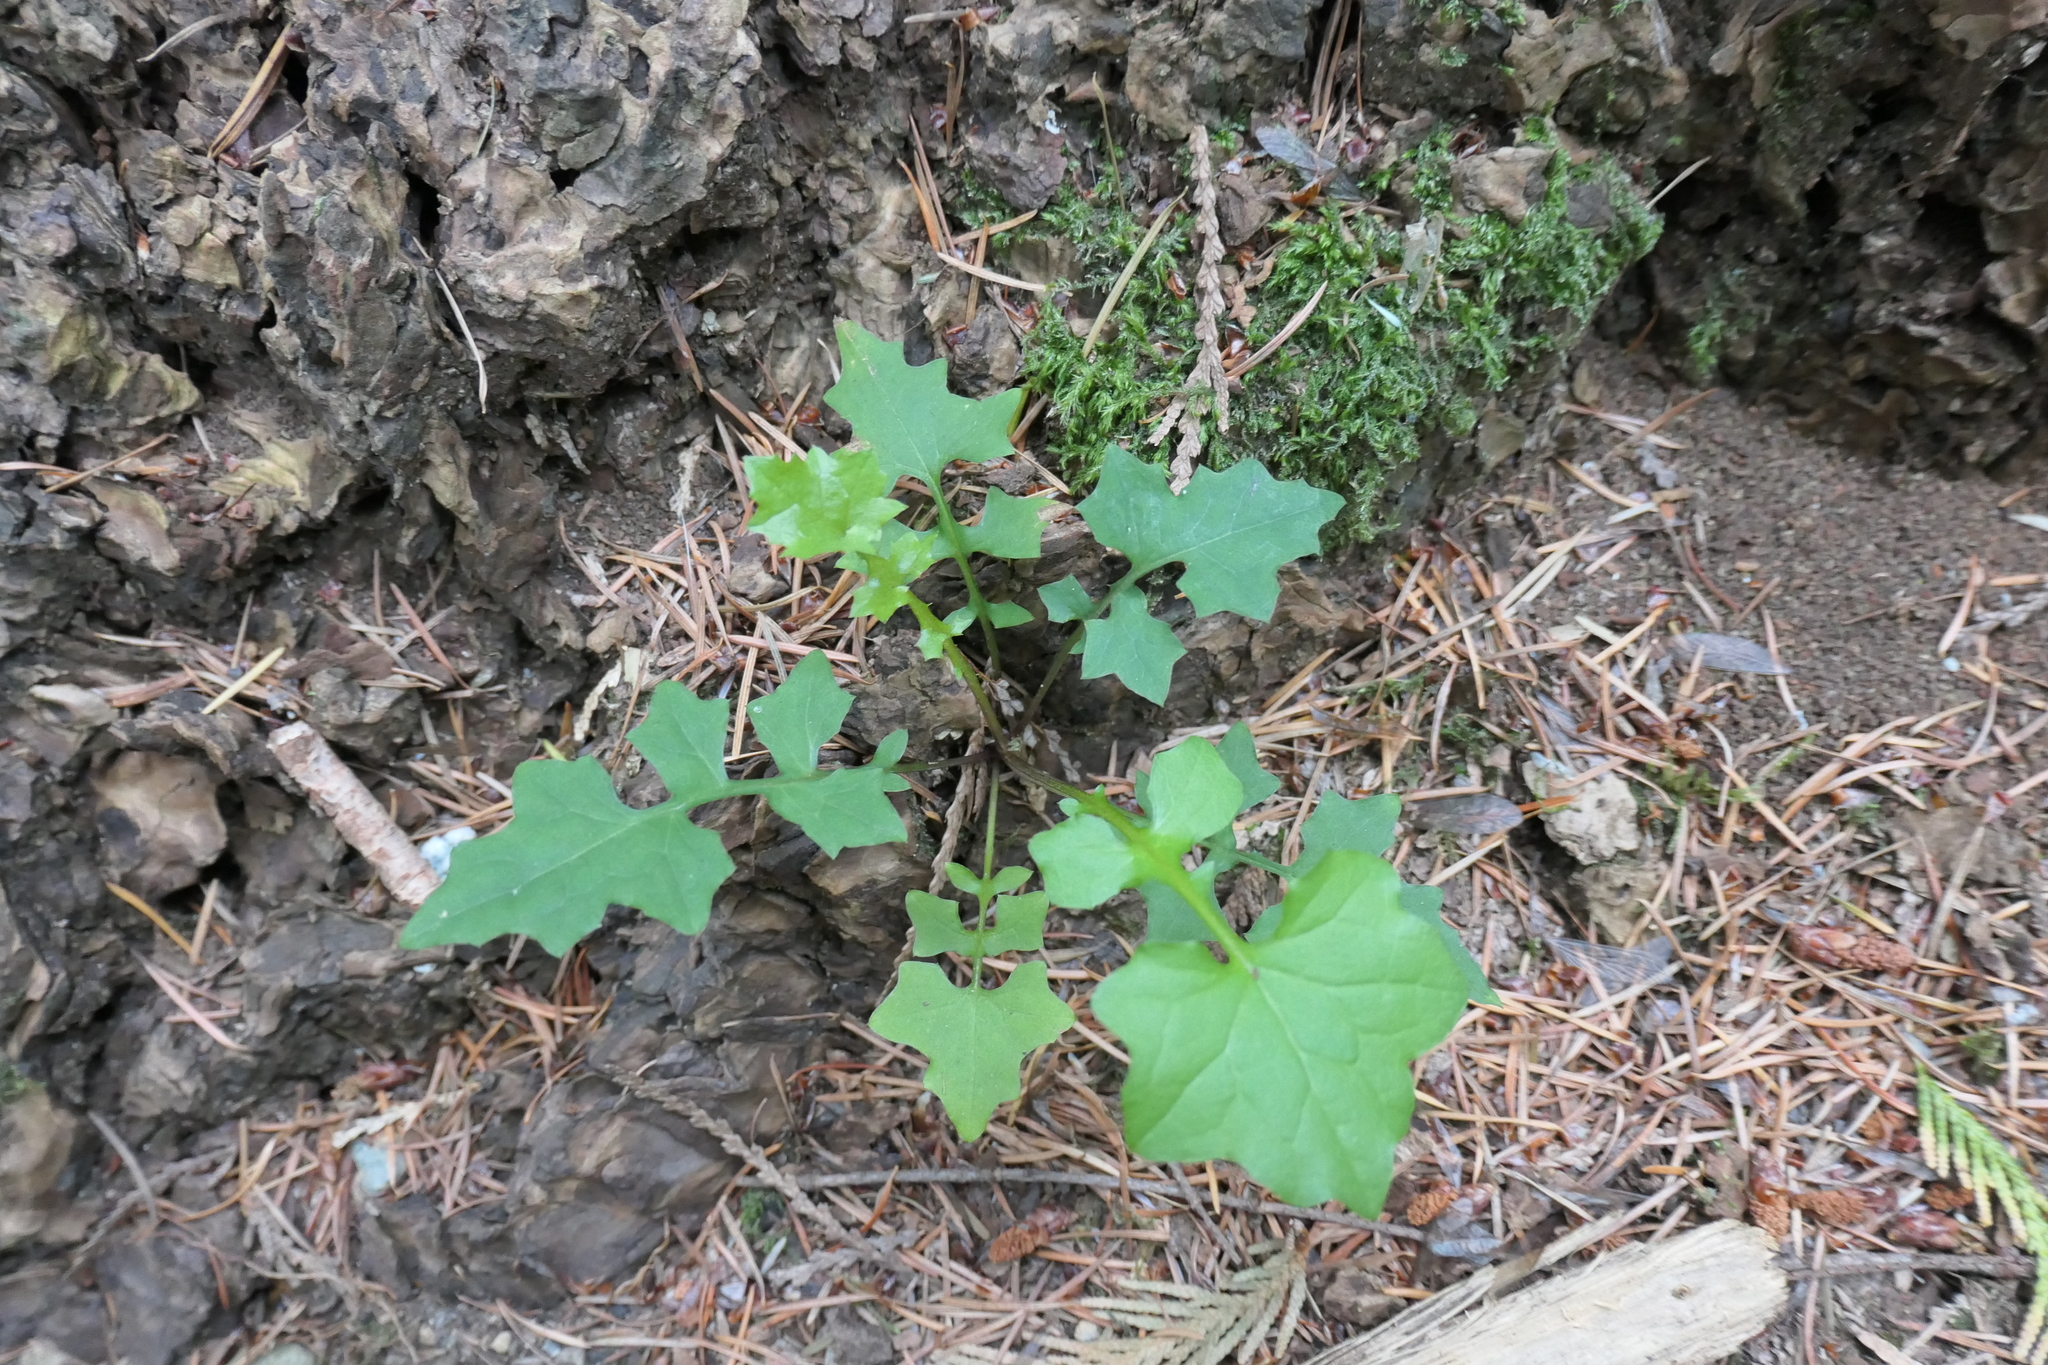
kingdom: Plantae
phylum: Tracheophyta
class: Magnoliopsida
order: Asterales
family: Asteraceae
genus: Mycelis
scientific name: Mycelis muralis
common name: Wall lettuce
